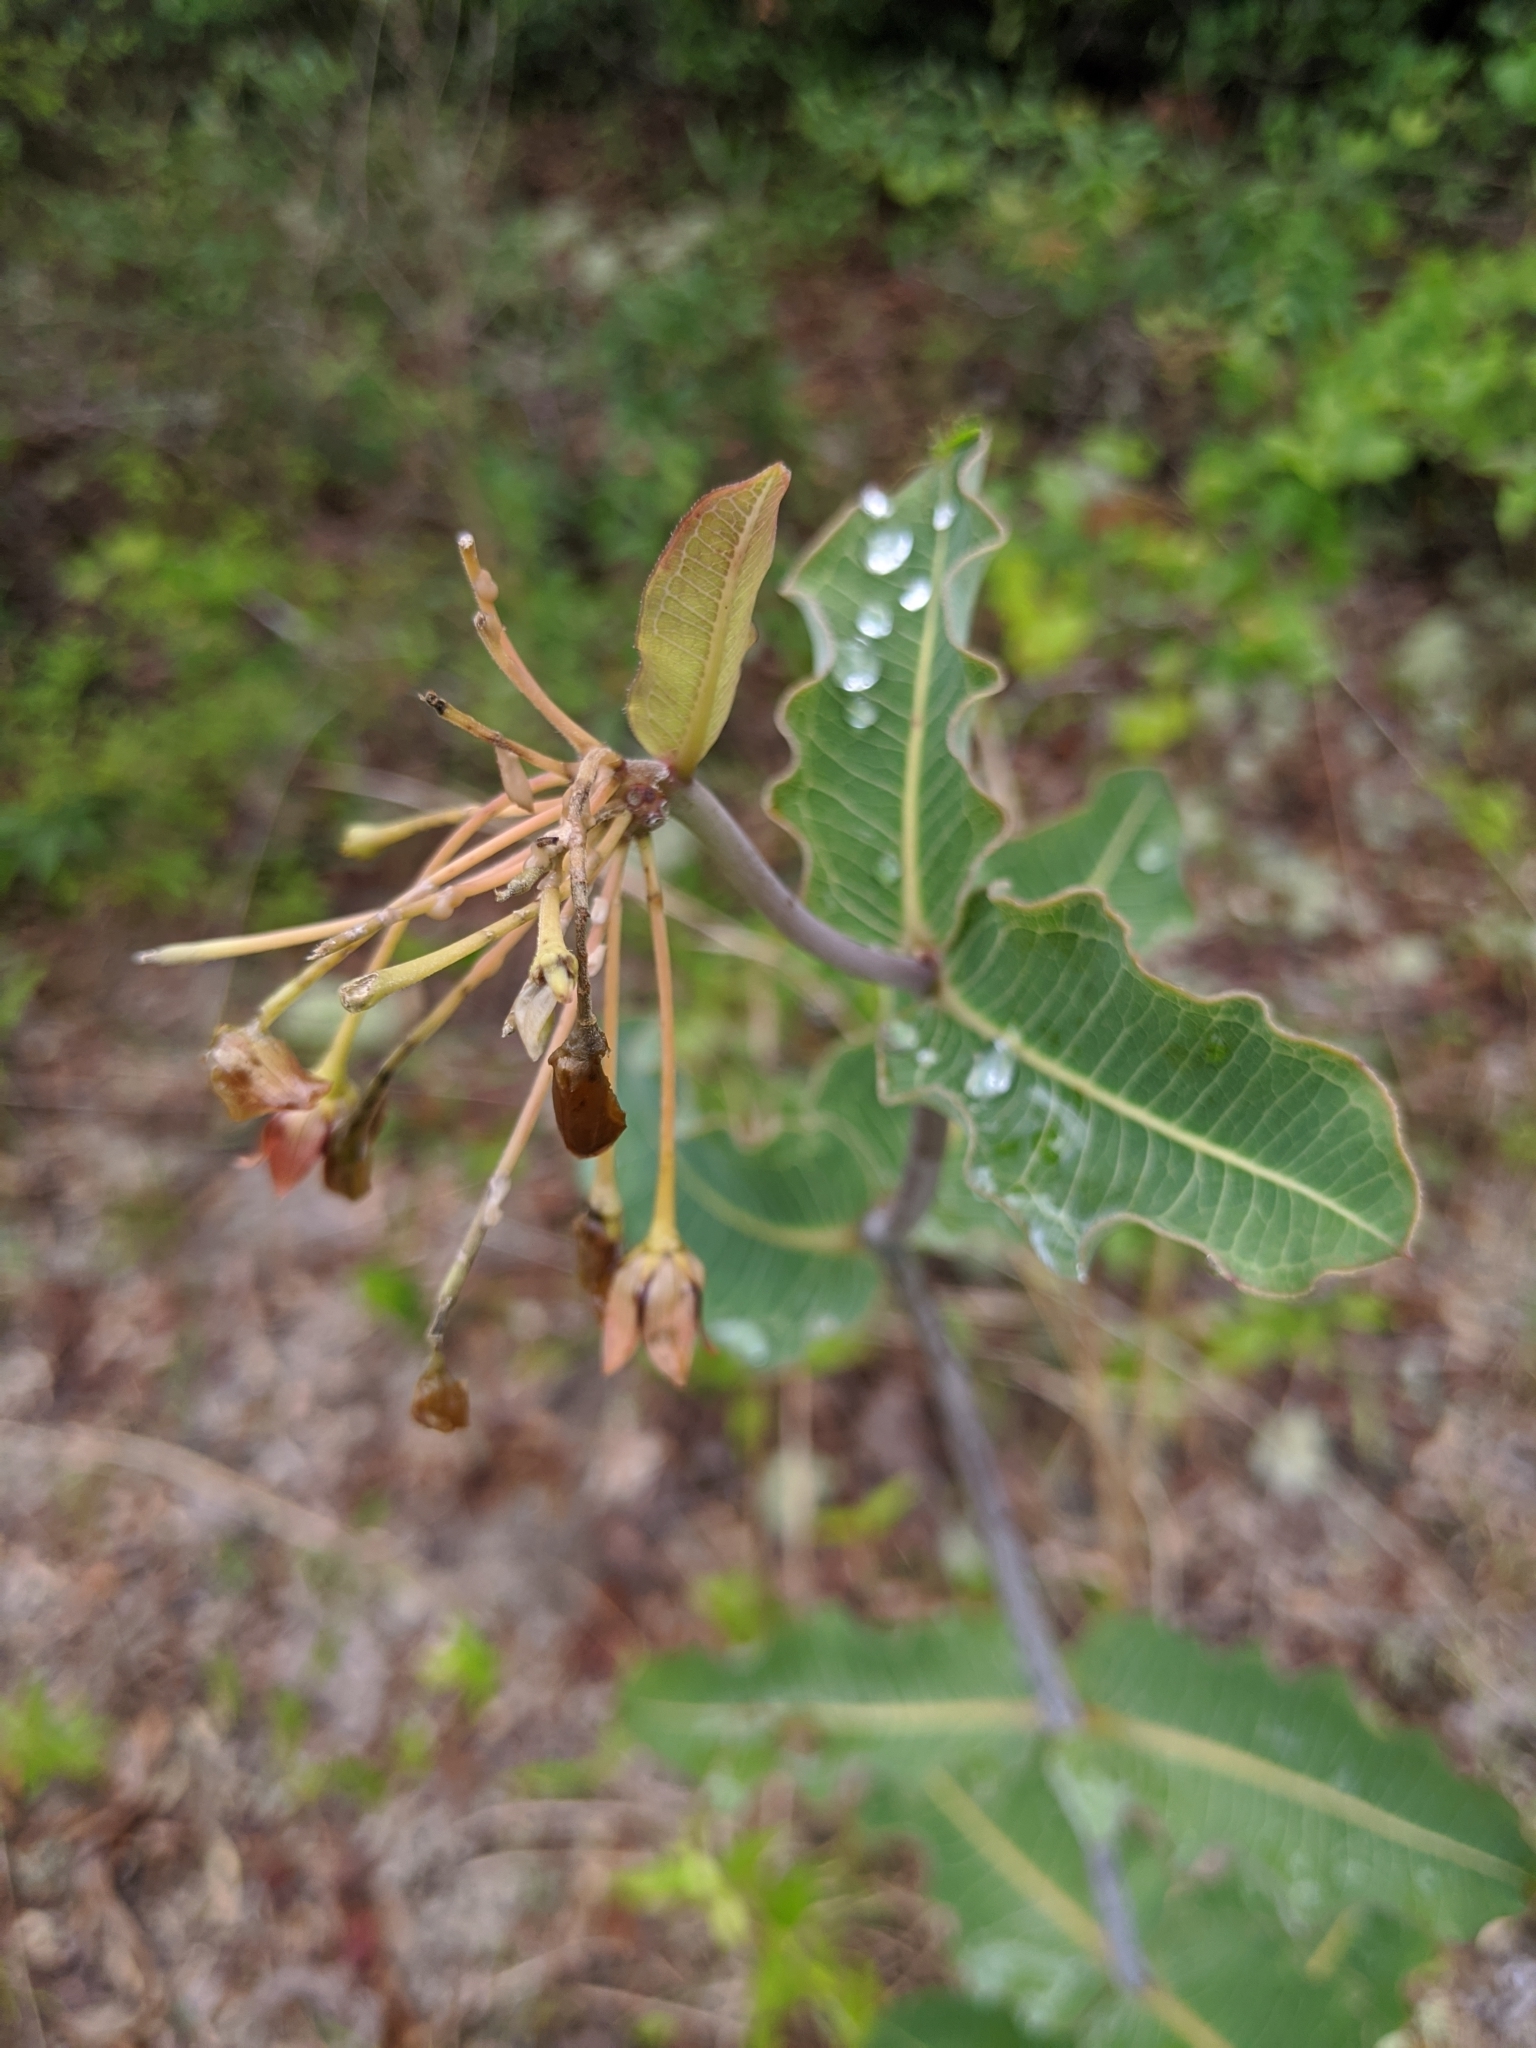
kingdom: Plantae
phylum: Tracheophyta
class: Magnoliopsida
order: Gentianales
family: Apocynaceae
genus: Asclepias
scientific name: Asclepias amplexicaulis
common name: Blunt-leaf milkweed
